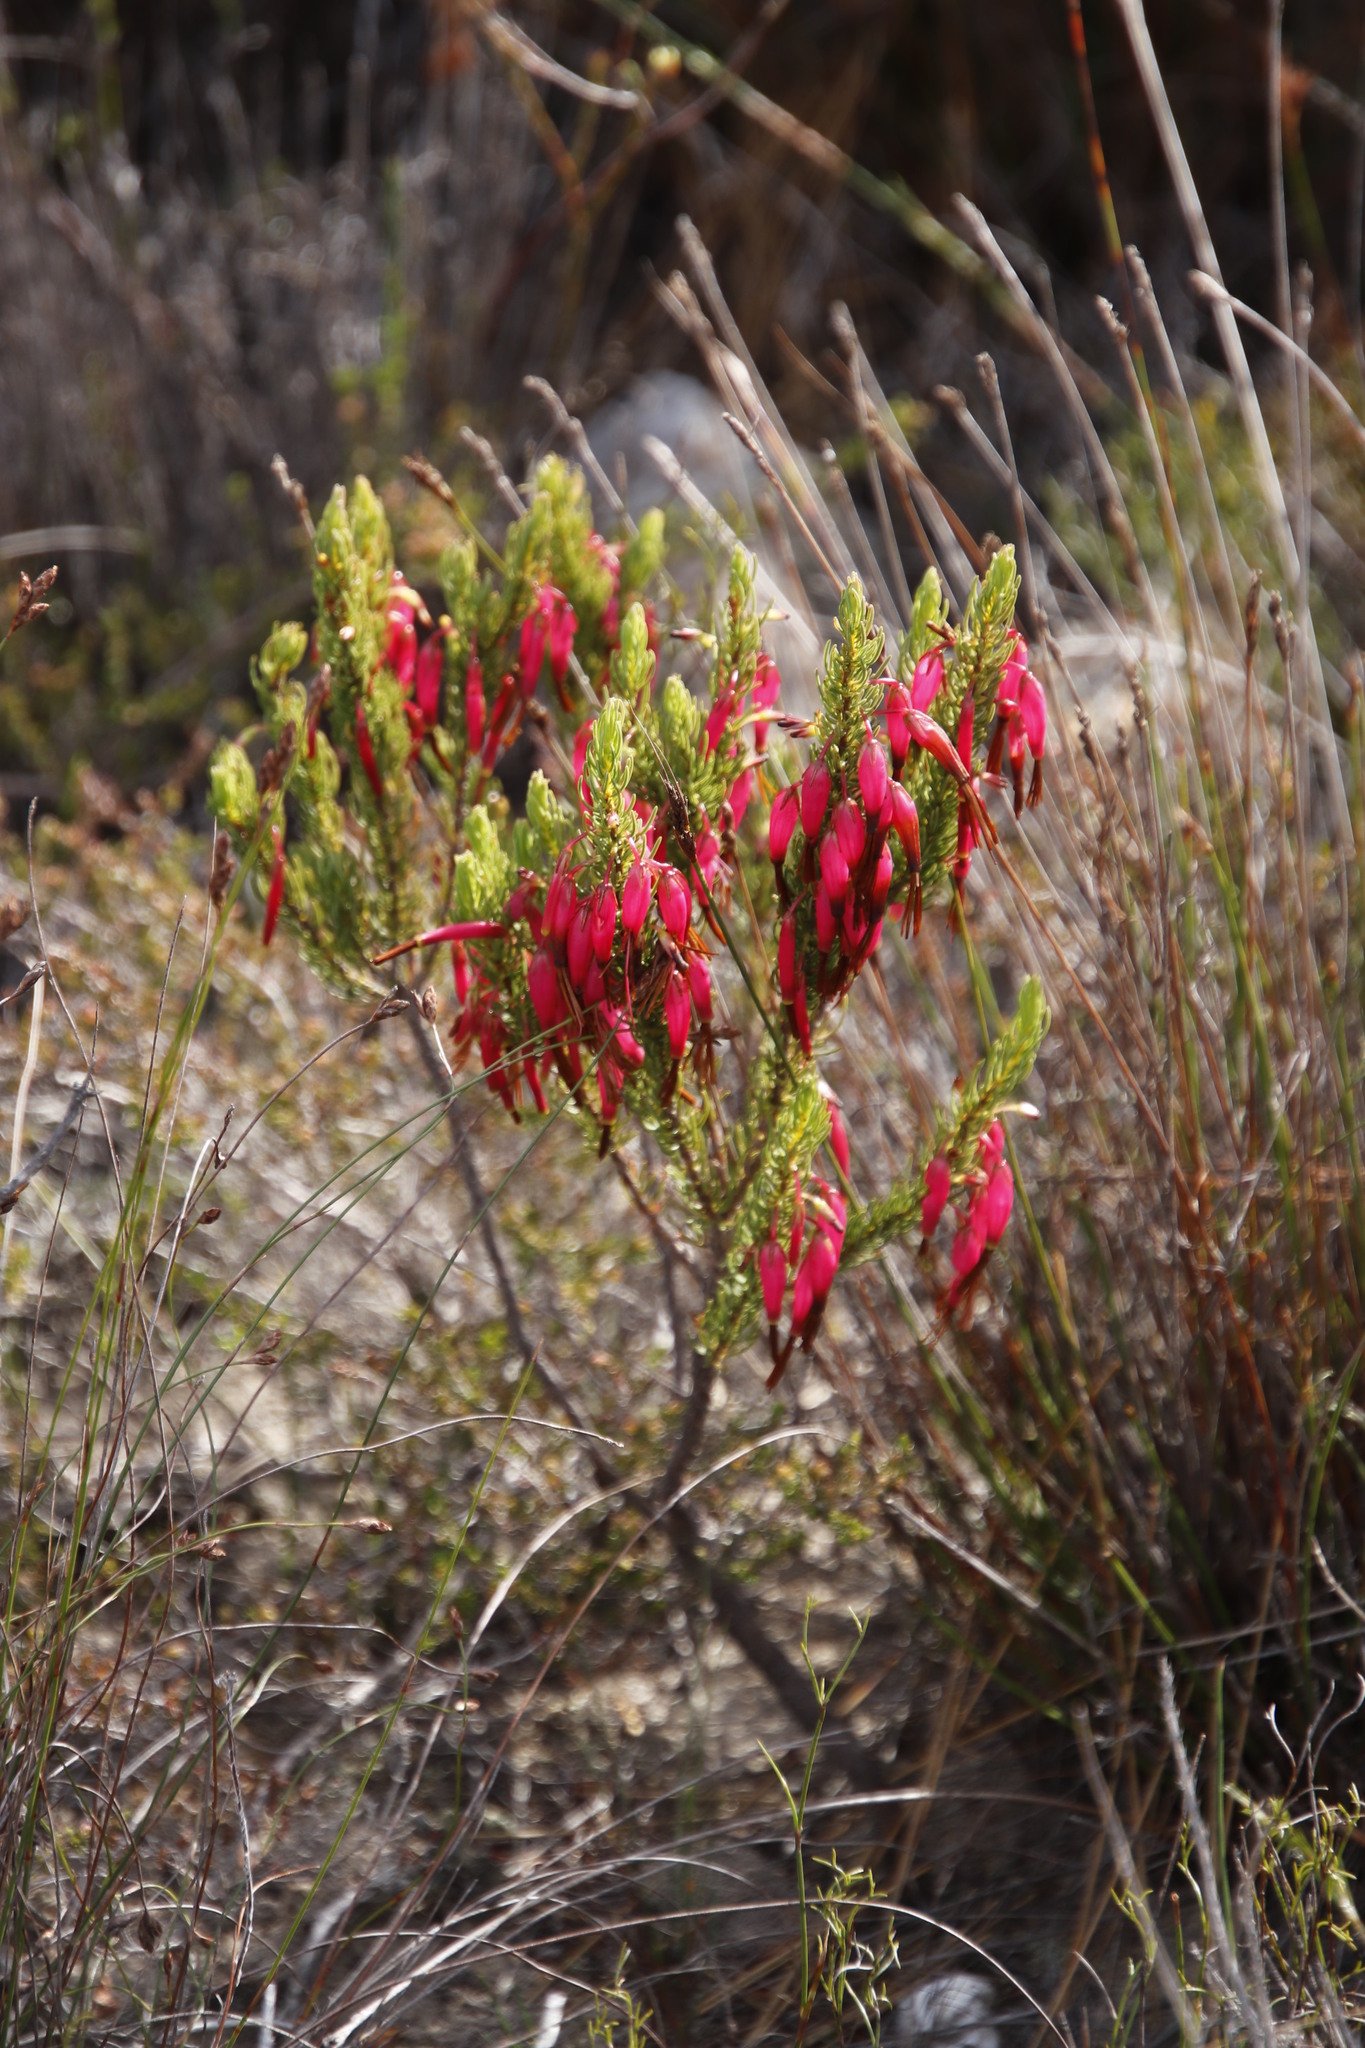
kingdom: Plantae
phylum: Tracheophyta
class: Magnoliopsida
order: Ericales
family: Ericaceae
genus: Erica
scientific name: Erica plukenetii
